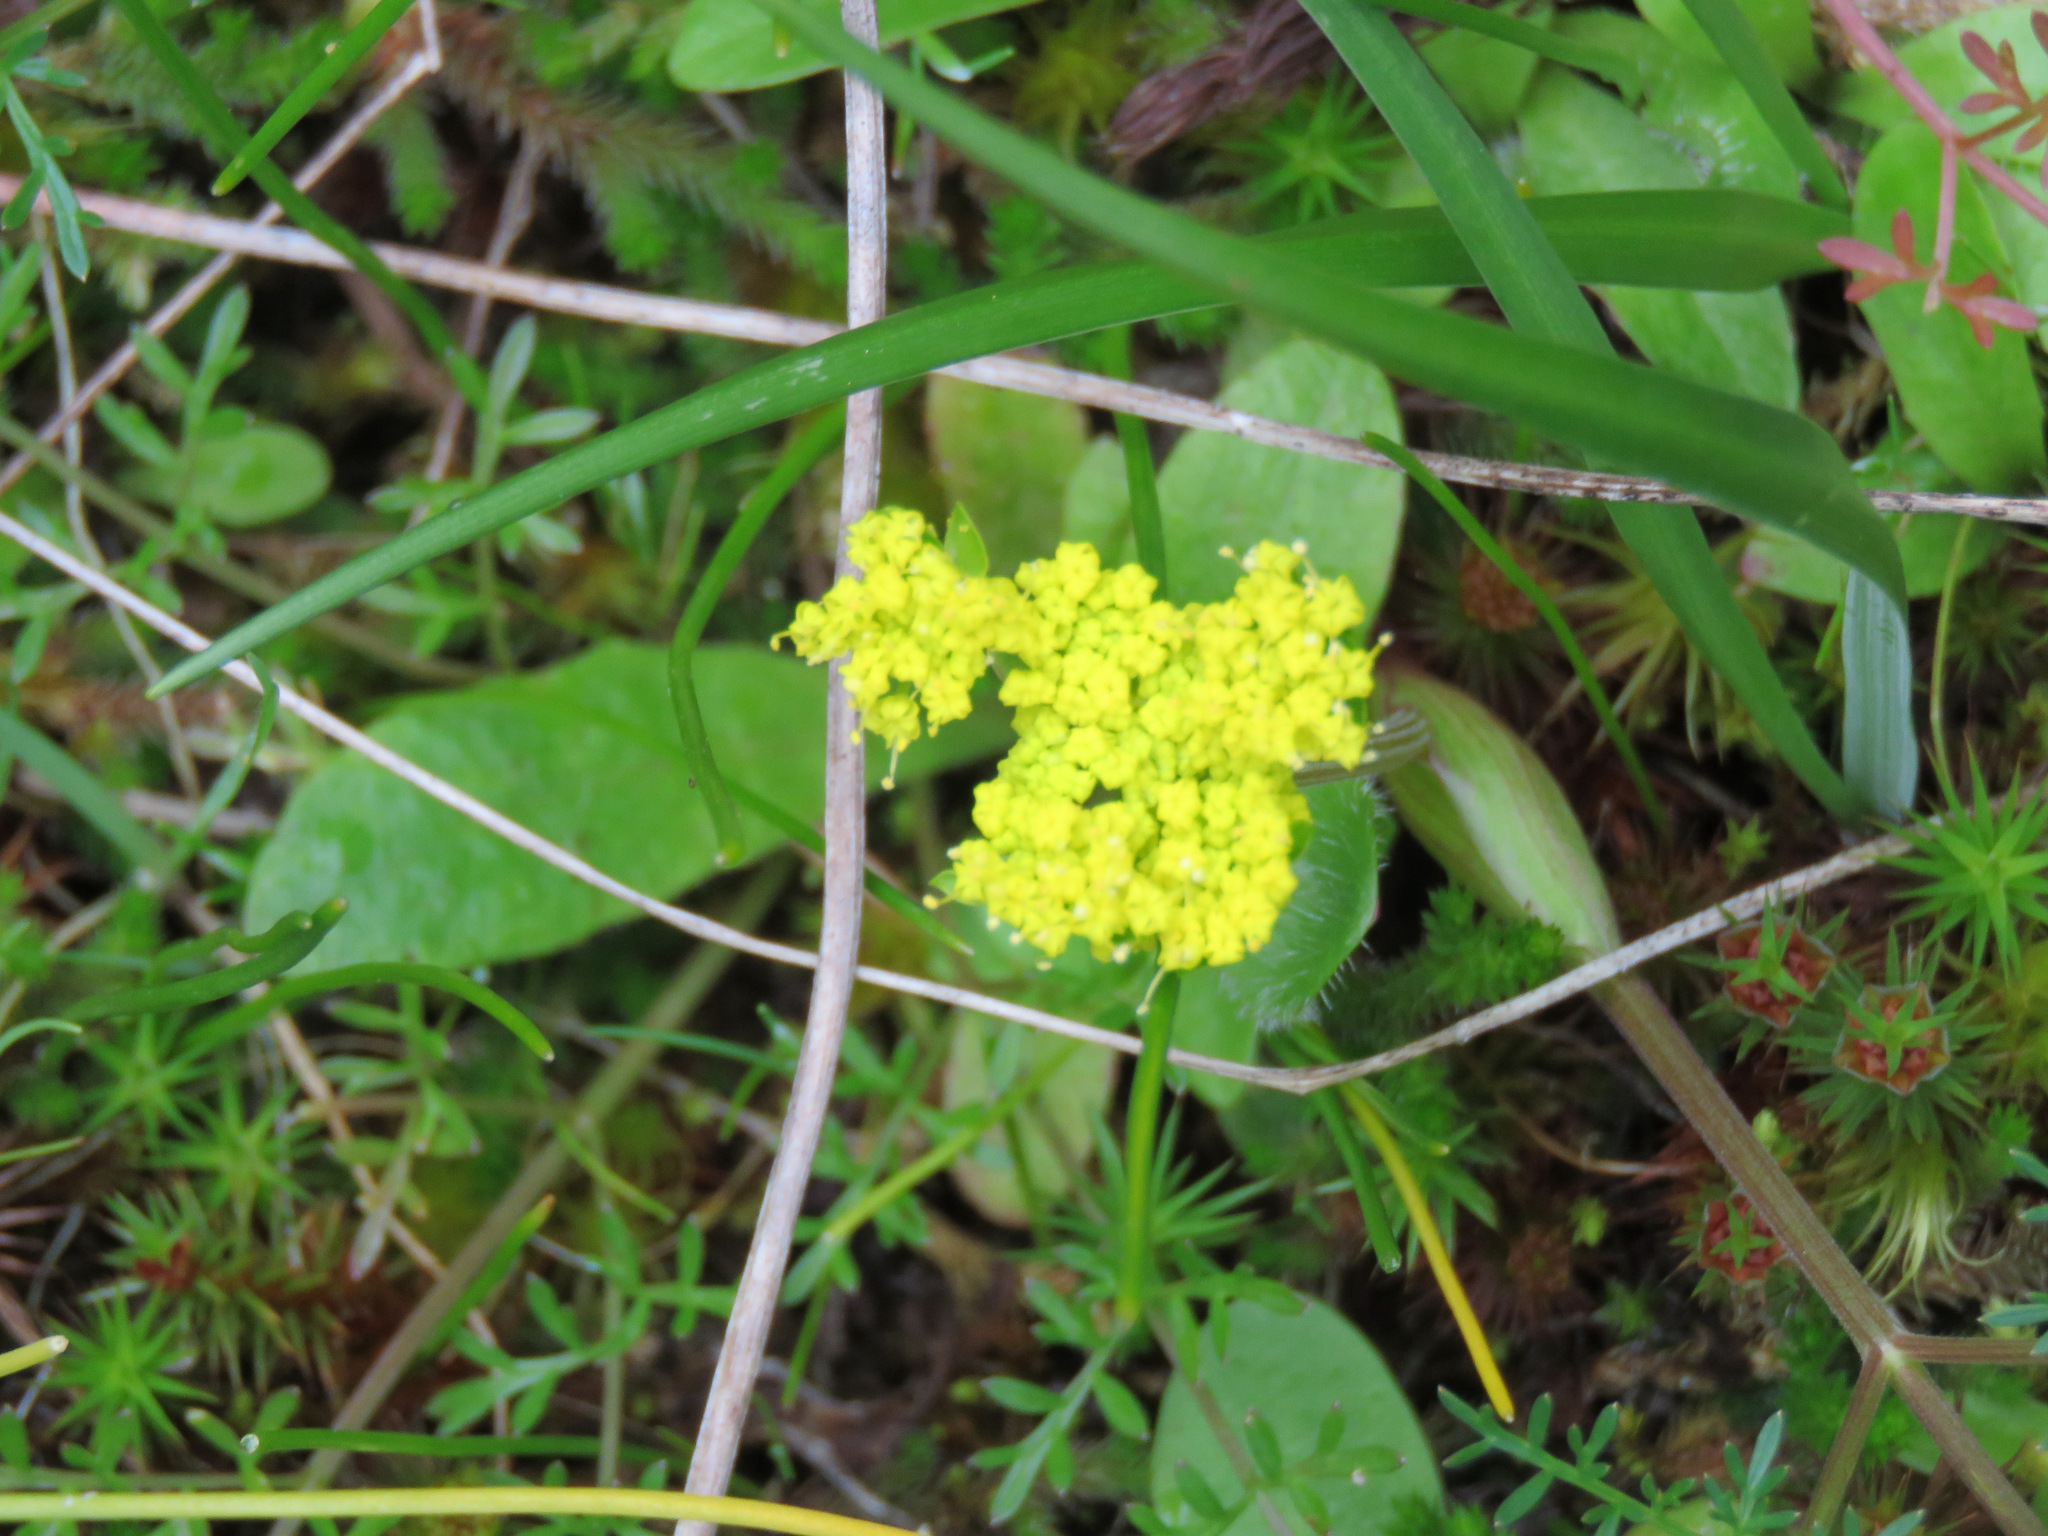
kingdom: Plantae
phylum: Tracheophyta
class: Magnoliopsida
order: Apiales
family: Apiaceae
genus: Lomatium
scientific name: Lomatium utriculatum
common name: Fine-leaf desert-parsley
